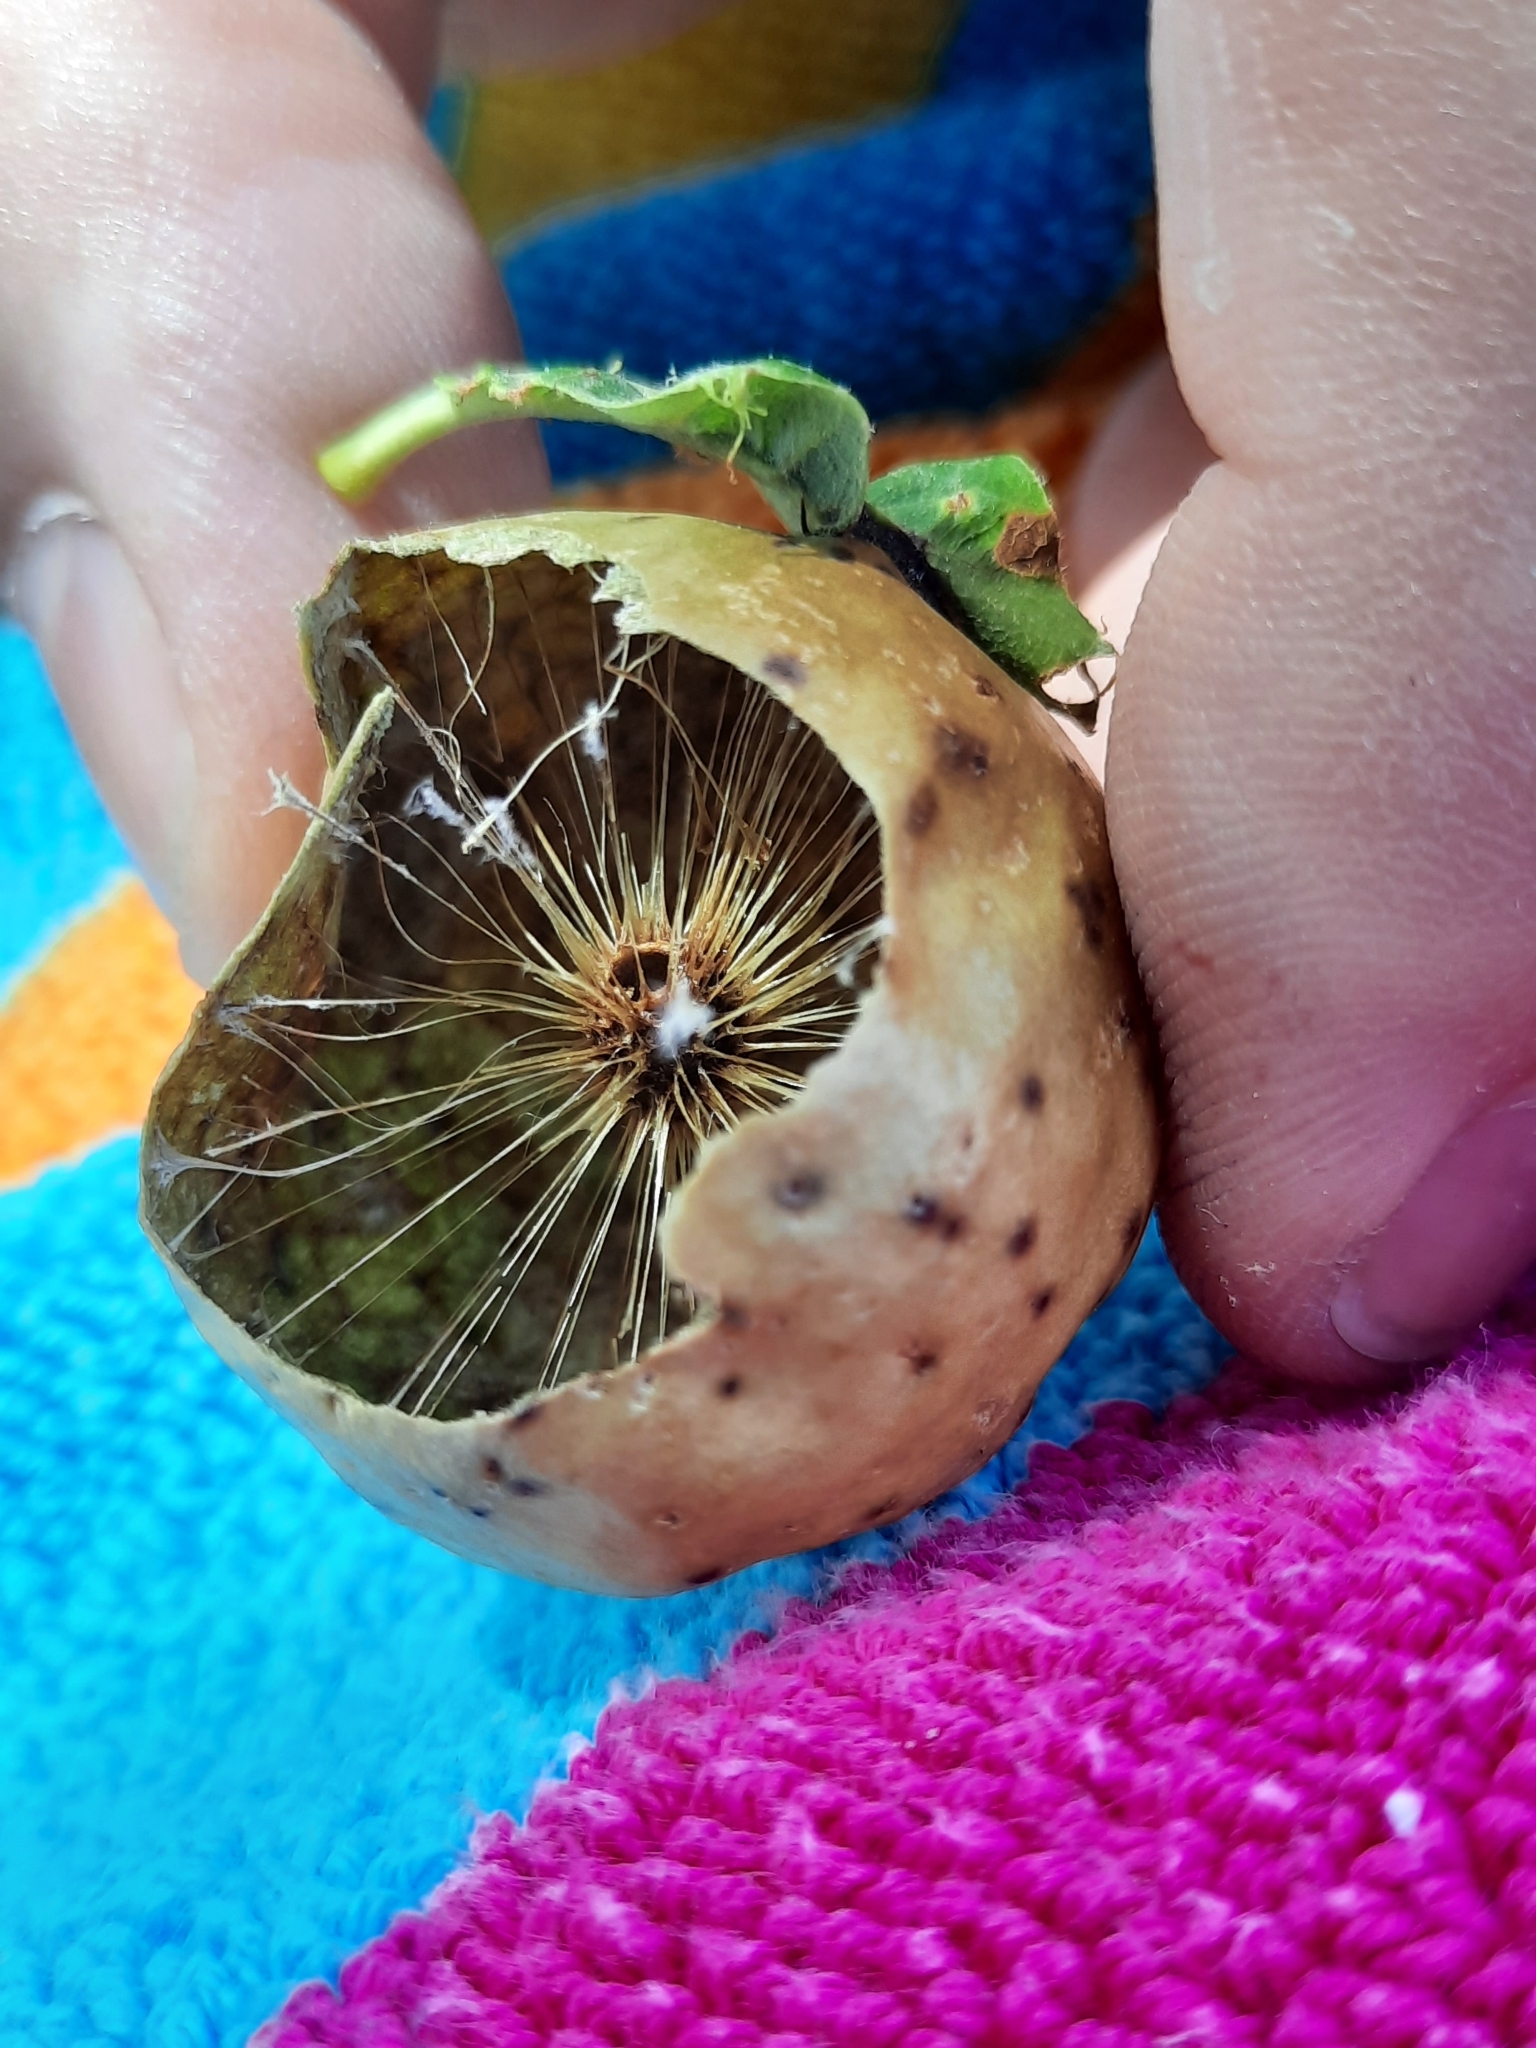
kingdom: Animalia
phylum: Arthropoda
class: Insecta
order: Hymenoptera
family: Cynipidae
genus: Amphibolips
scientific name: Amphibolips
